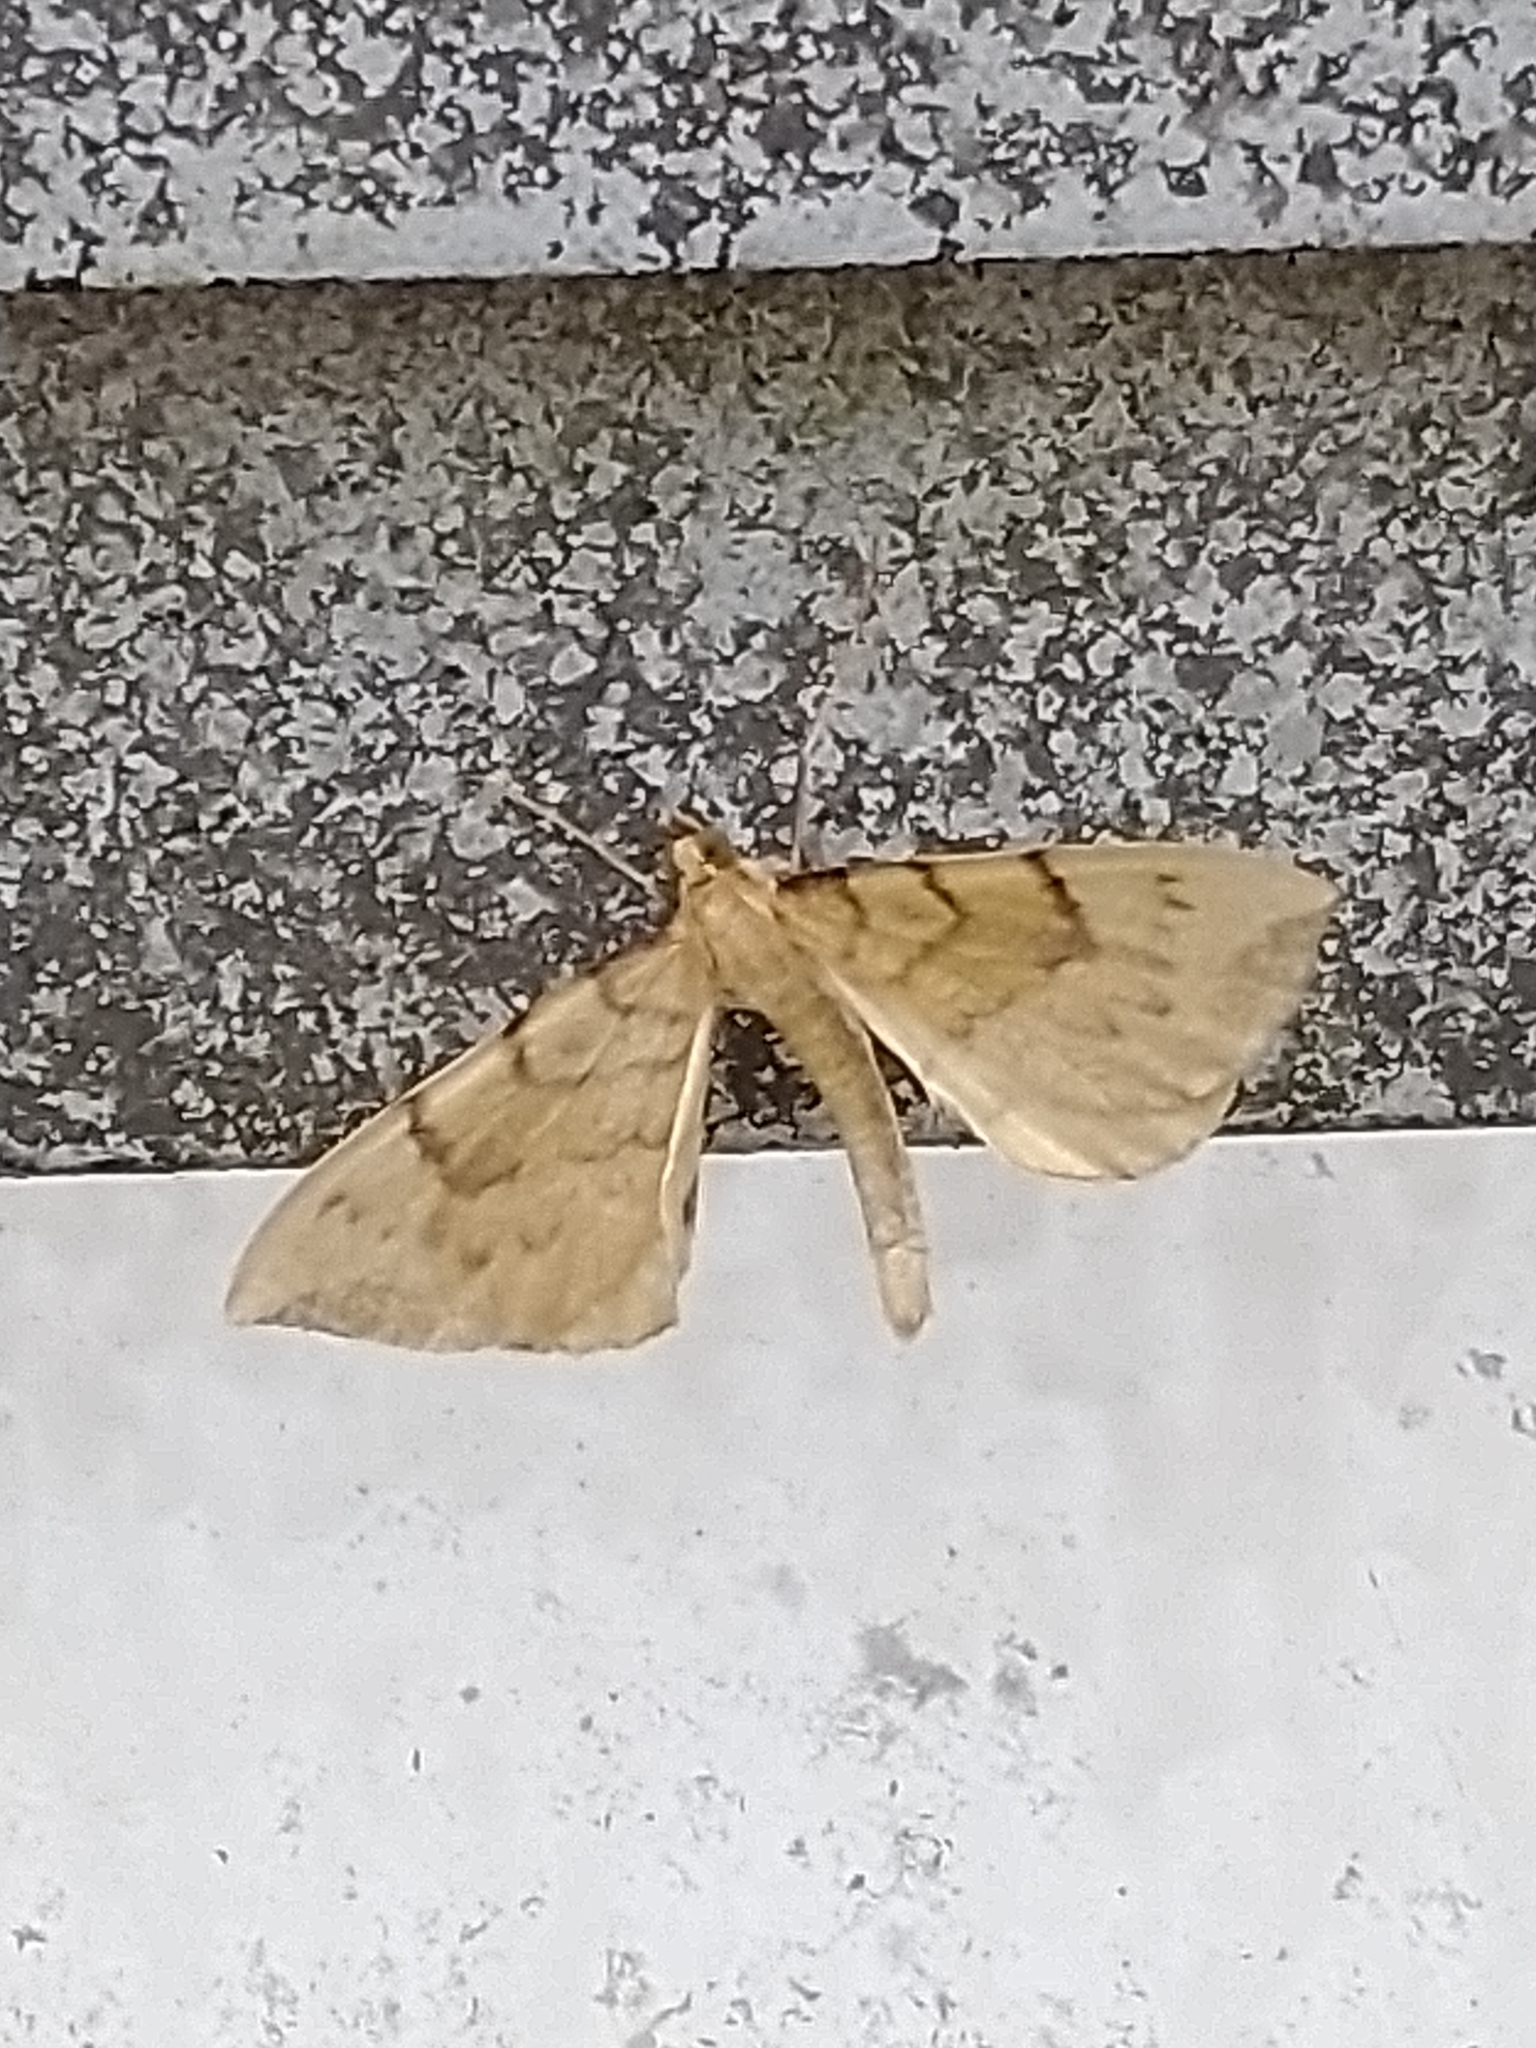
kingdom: Animalia
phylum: Arthropoda
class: Insecta
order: Lepidoptera
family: Geometridae
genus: Eulithis
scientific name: Eulithis pyraliata
